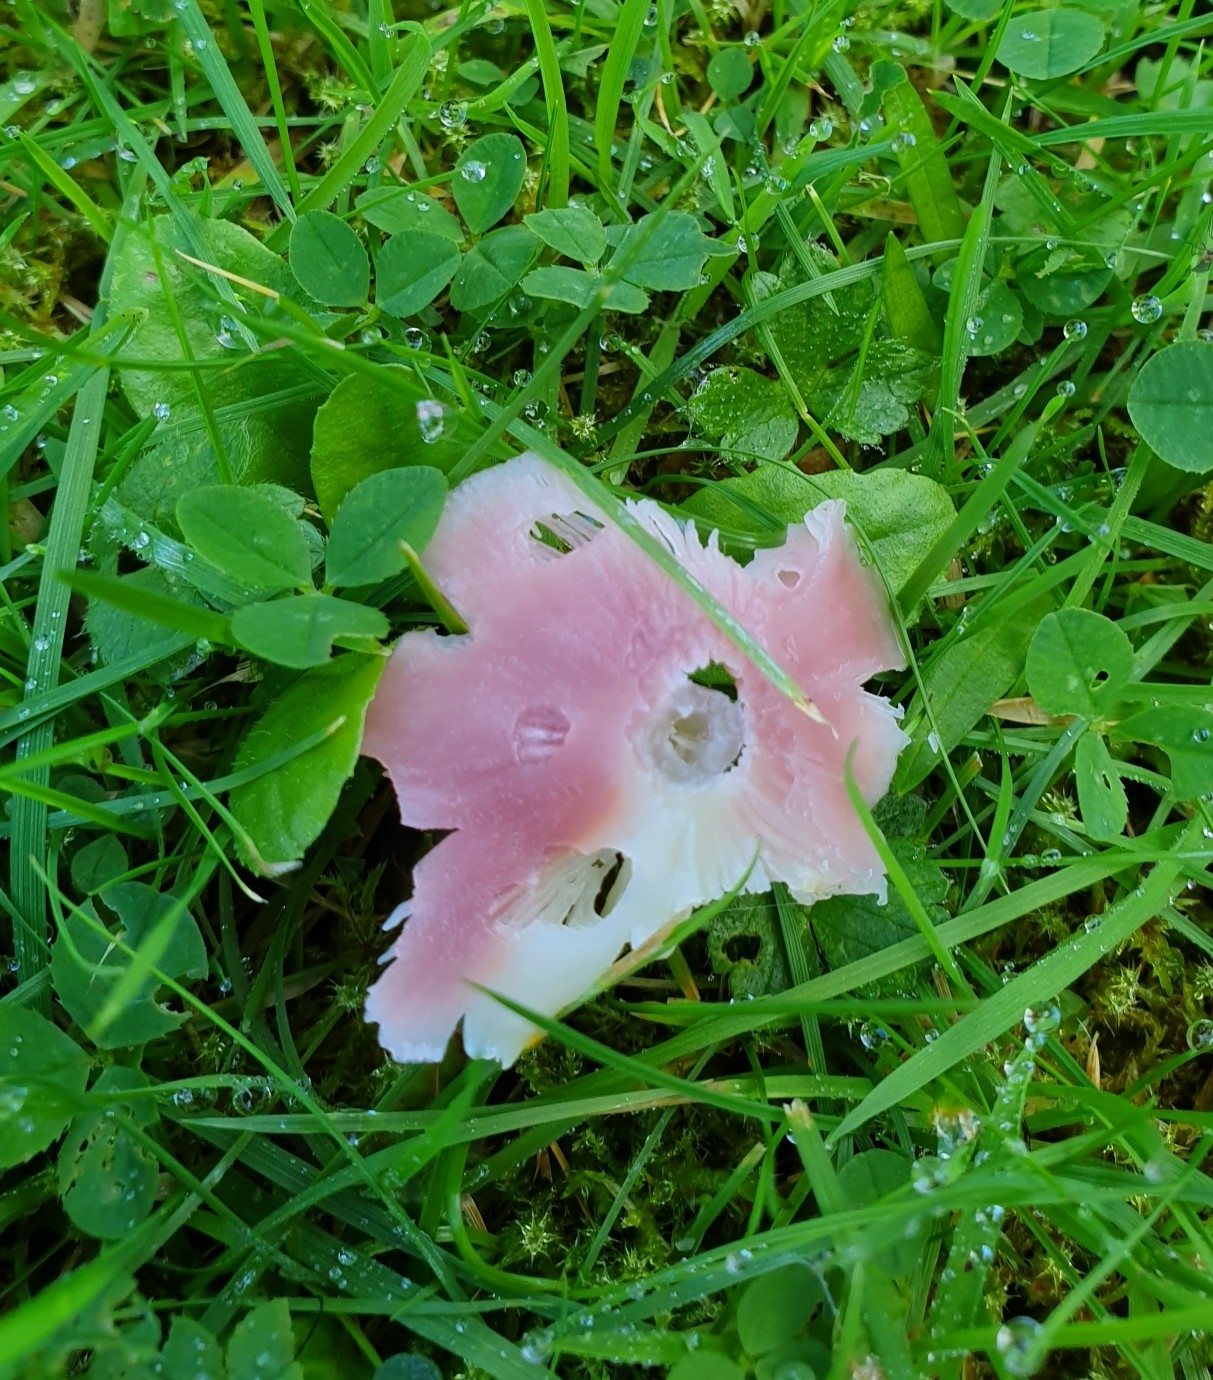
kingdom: Fungi
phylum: Basidiomycota
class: Agaricomycetes
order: Agaricales
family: Hygrophoraceae
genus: Porpolomopsis
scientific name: Porpolomopsis calyptriformis
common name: Pink waxcap
